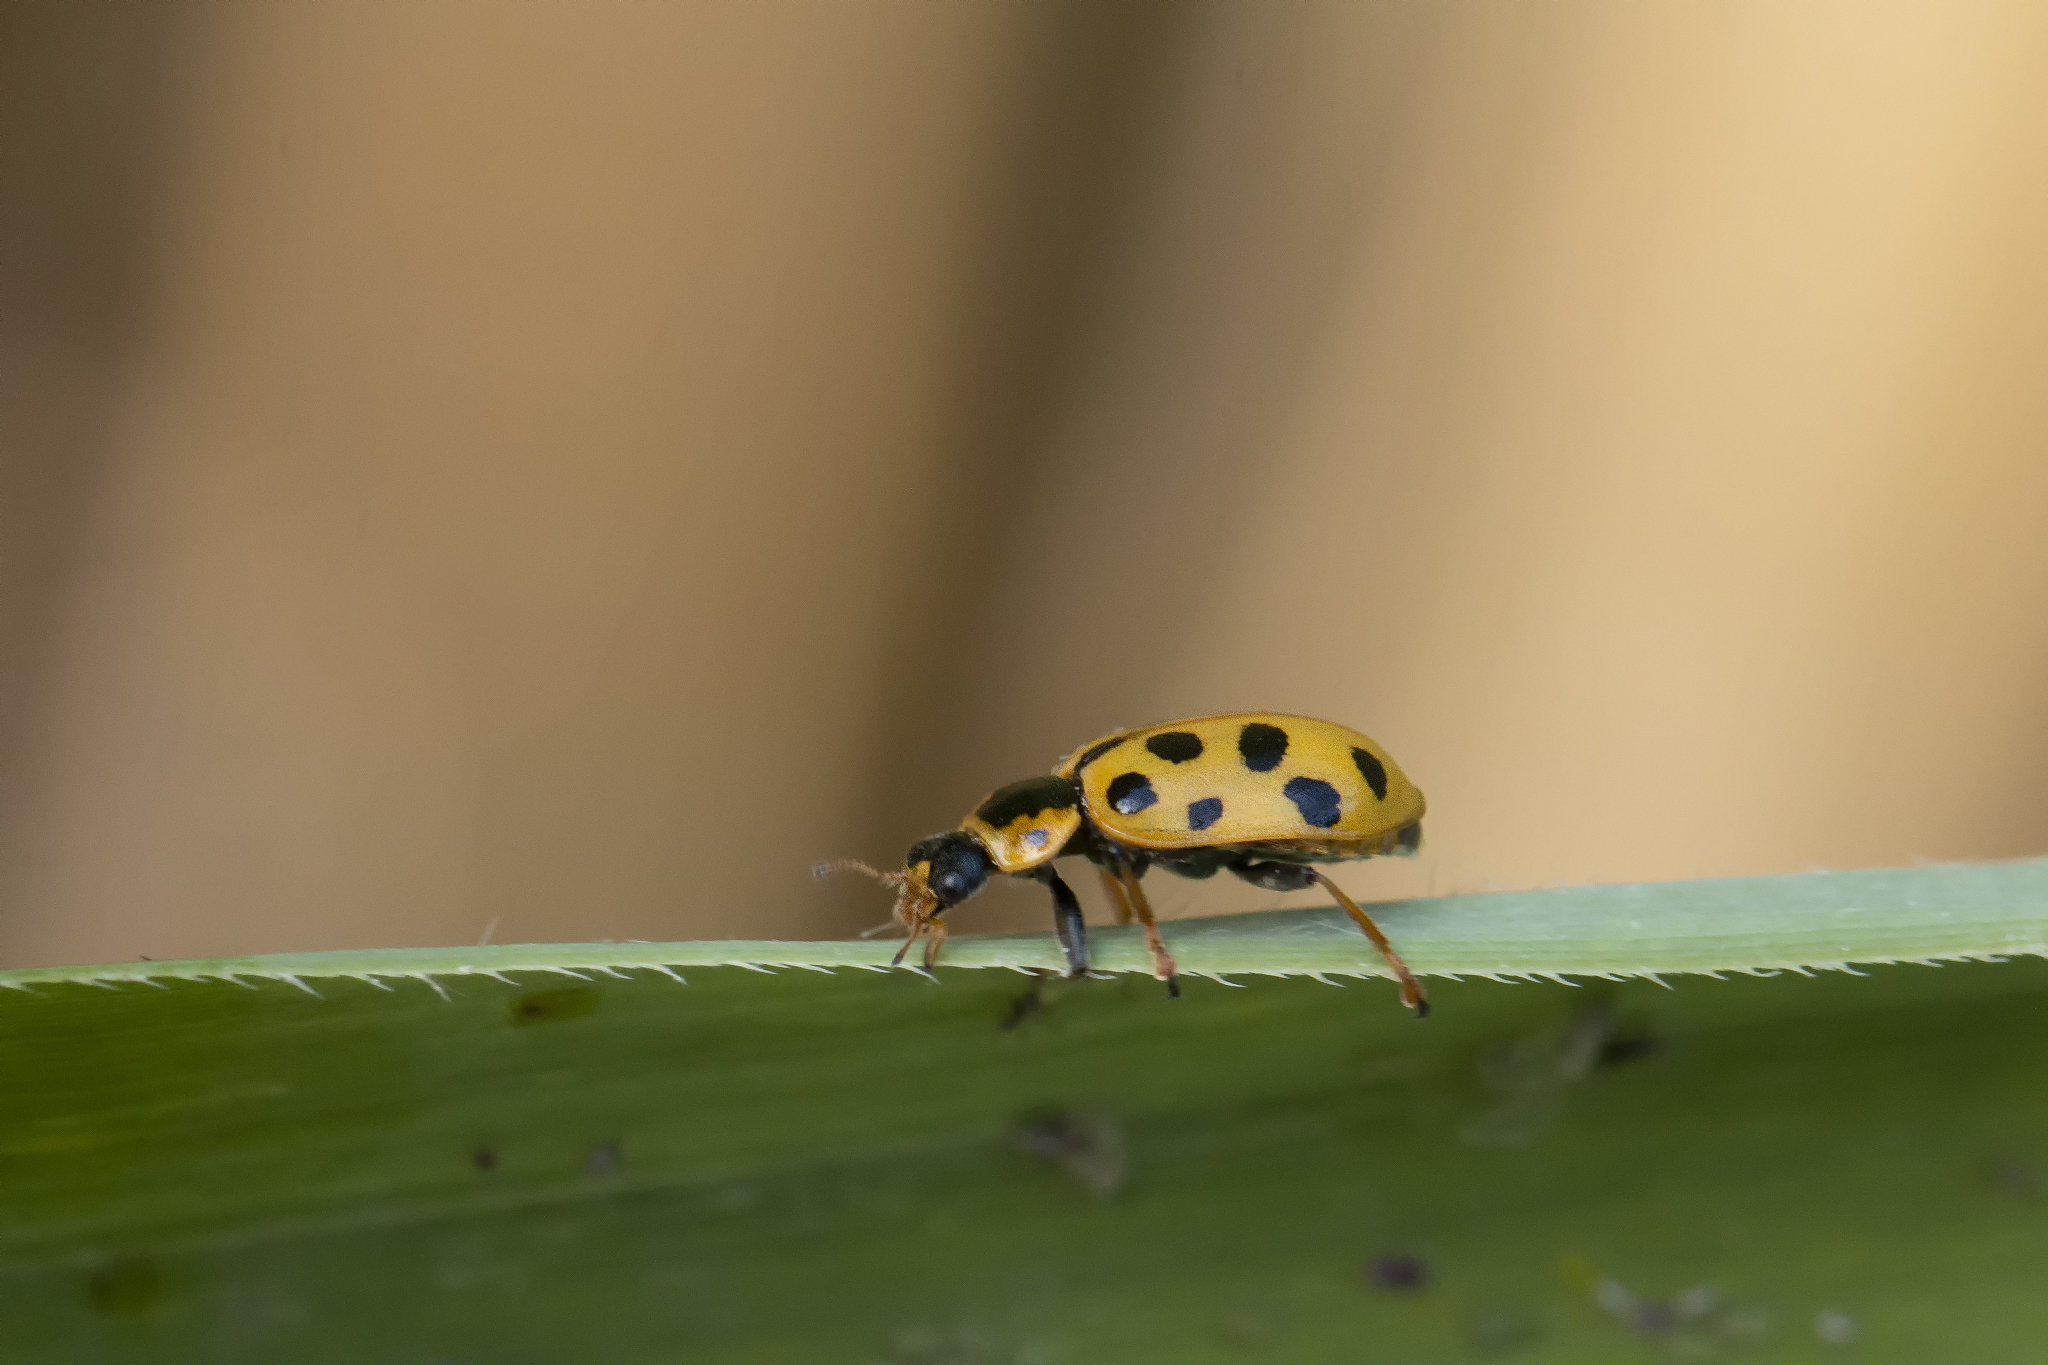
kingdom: Animalia
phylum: Arthropoda
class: Insecta
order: Coleoptera
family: Coccinellidae
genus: Hippodamia
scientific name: Hippodamia tredecimpunctata
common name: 13-spot ladybird
